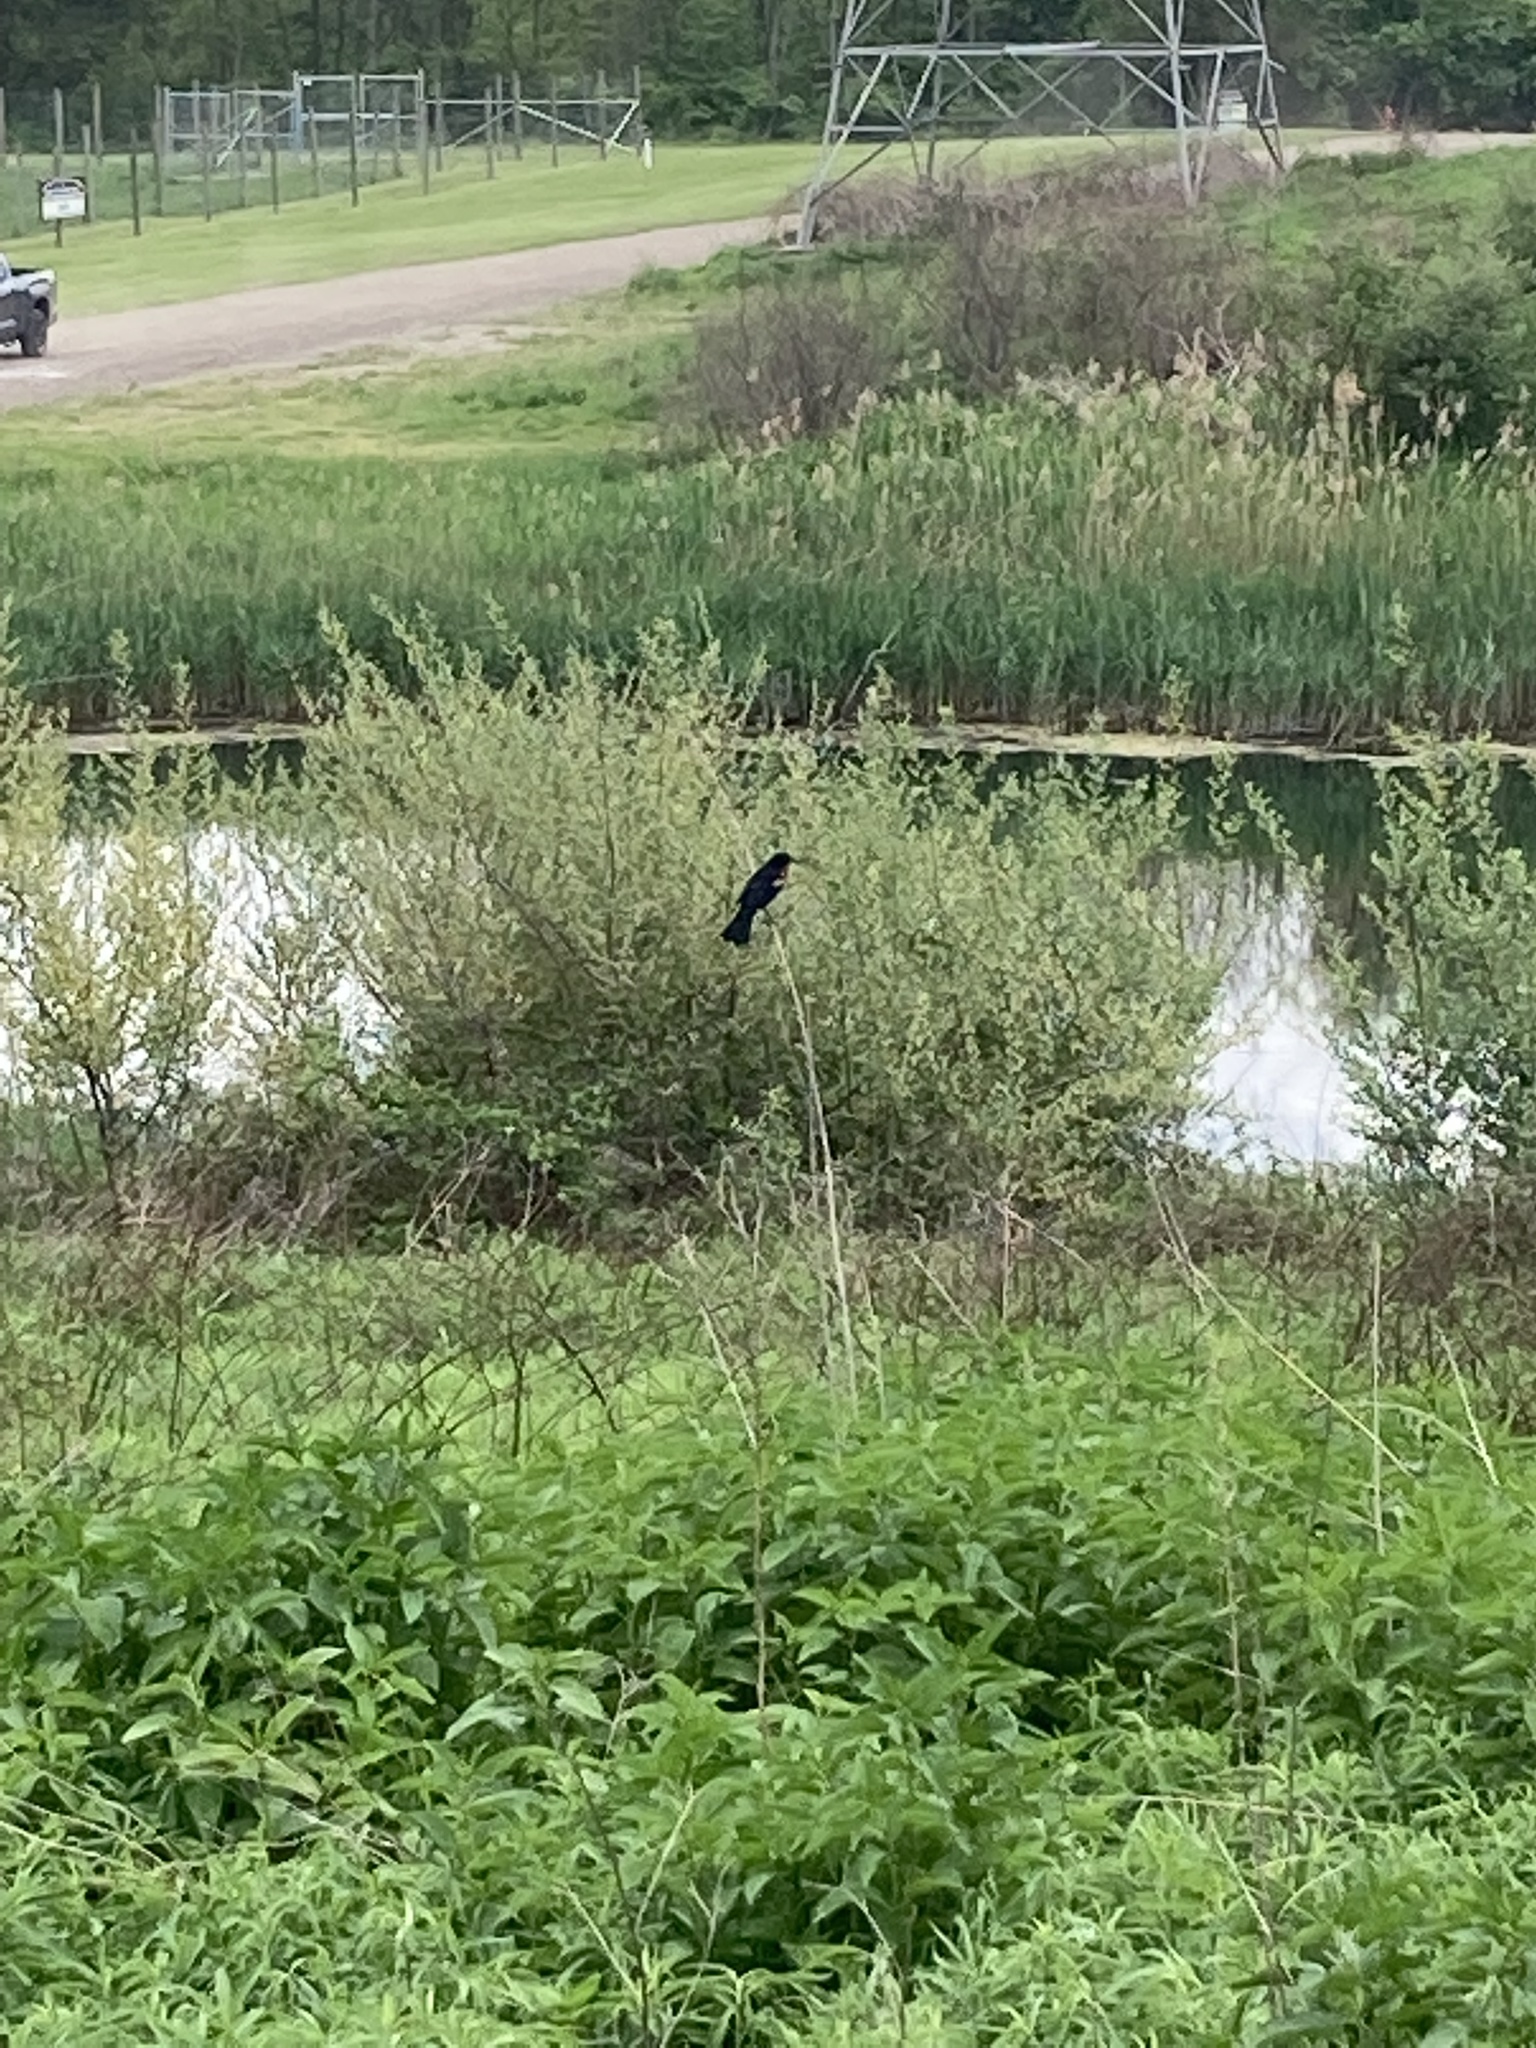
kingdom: Animalia
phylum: Chordata
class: Aves
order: Passeriformes
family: Icteridae
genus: Agelaius
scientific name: Agelaius phoeniceus
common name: Red-winged blackbird
